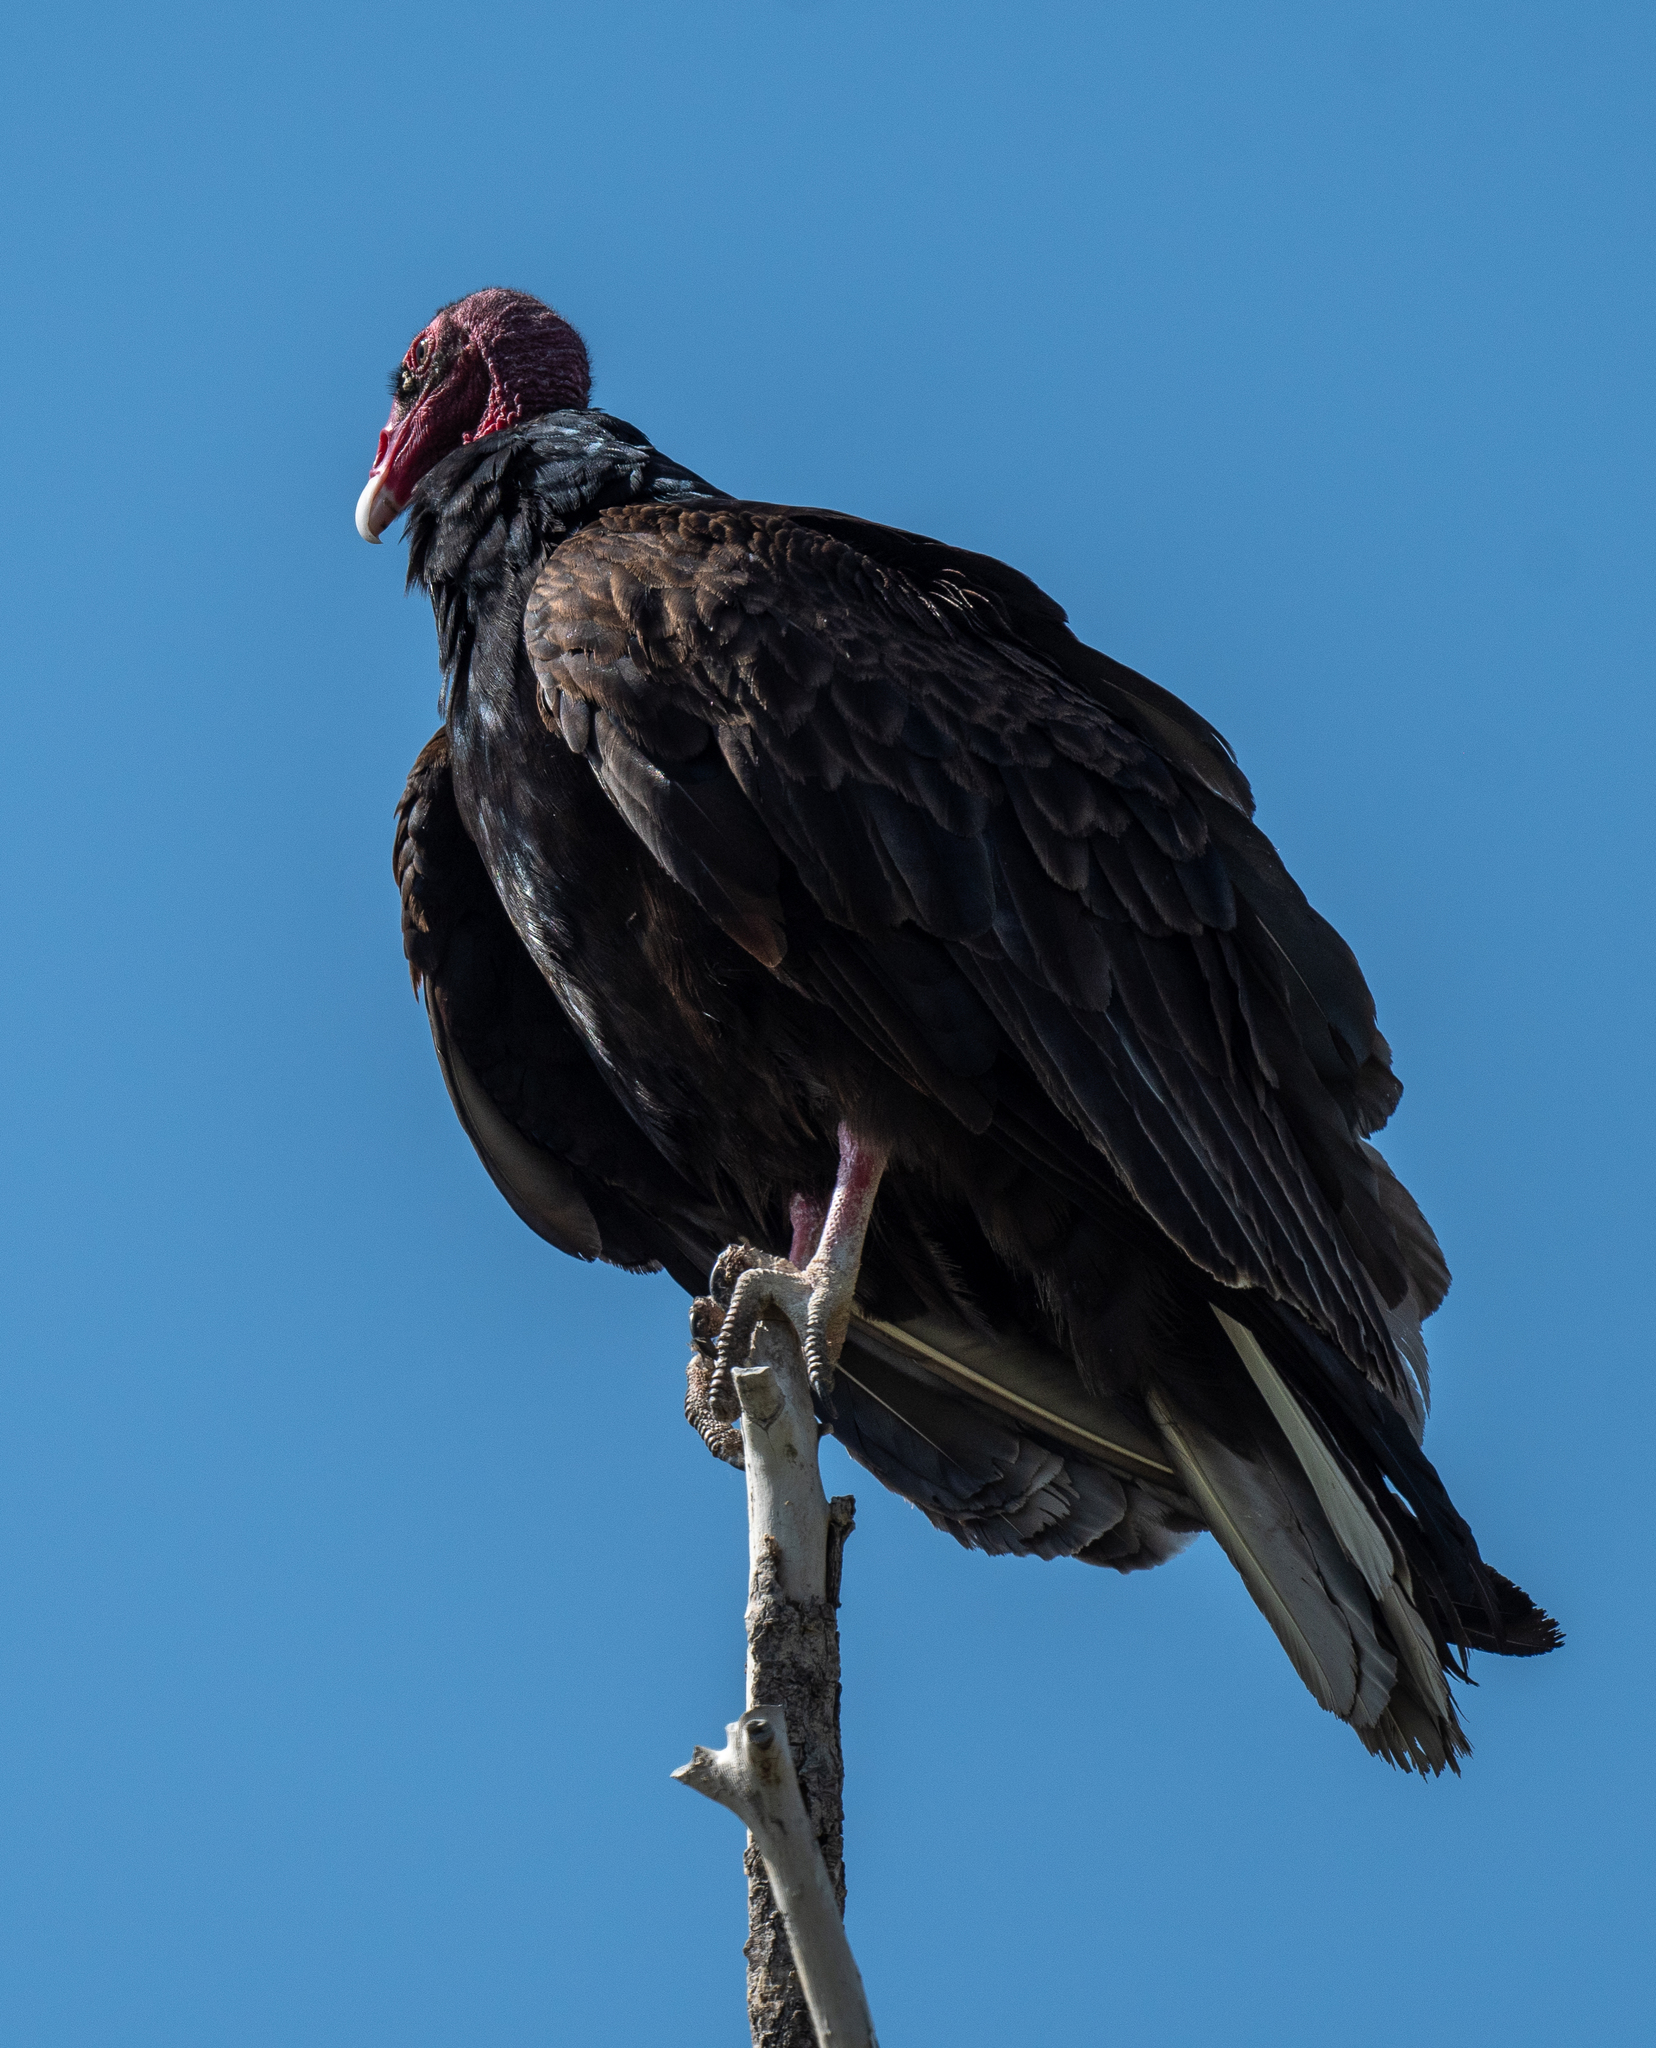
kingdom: Animalia
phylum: Chordata
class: Aves
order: Accipitriformes
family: Cathartidae
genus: Cathartes
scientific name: Cathartes aura
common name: Turkey vulture
